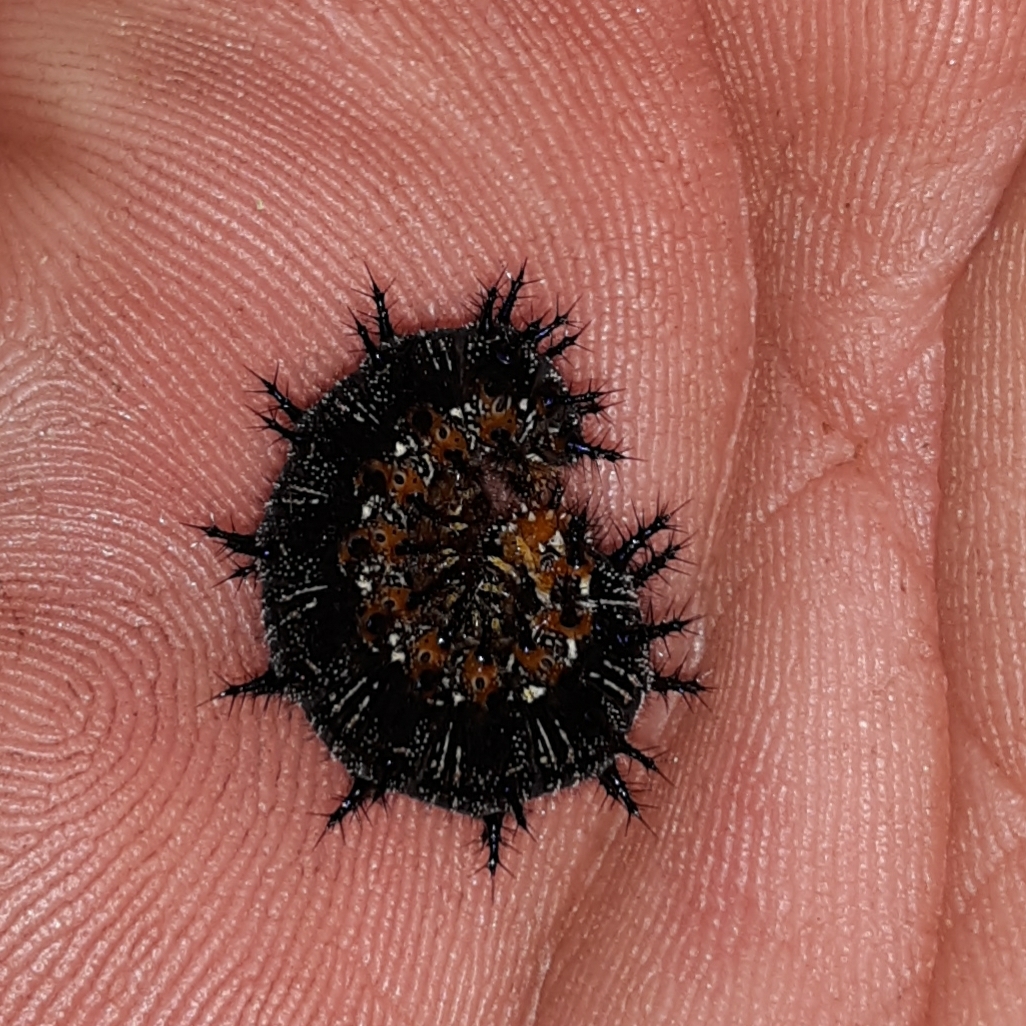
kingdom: Animalia
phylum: Arthropoda
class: Insecta
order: Lepidoptera
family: Nymphalidae
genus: Junonia
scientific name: Junonia coenia
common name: Common buckeye
